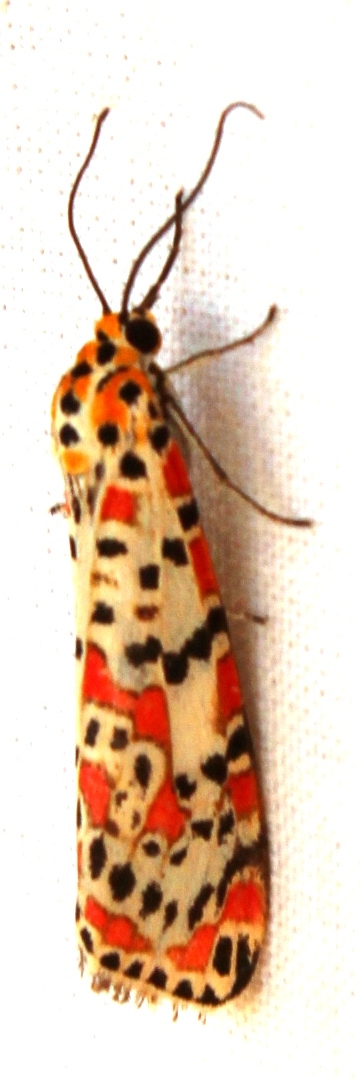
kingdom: Animalia
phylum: Arthropoda
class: Insecta
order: Lepidoptera
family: Erebidae
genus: Utetheisa
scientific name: Utetheisa pulchella
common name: Crimson speckled
